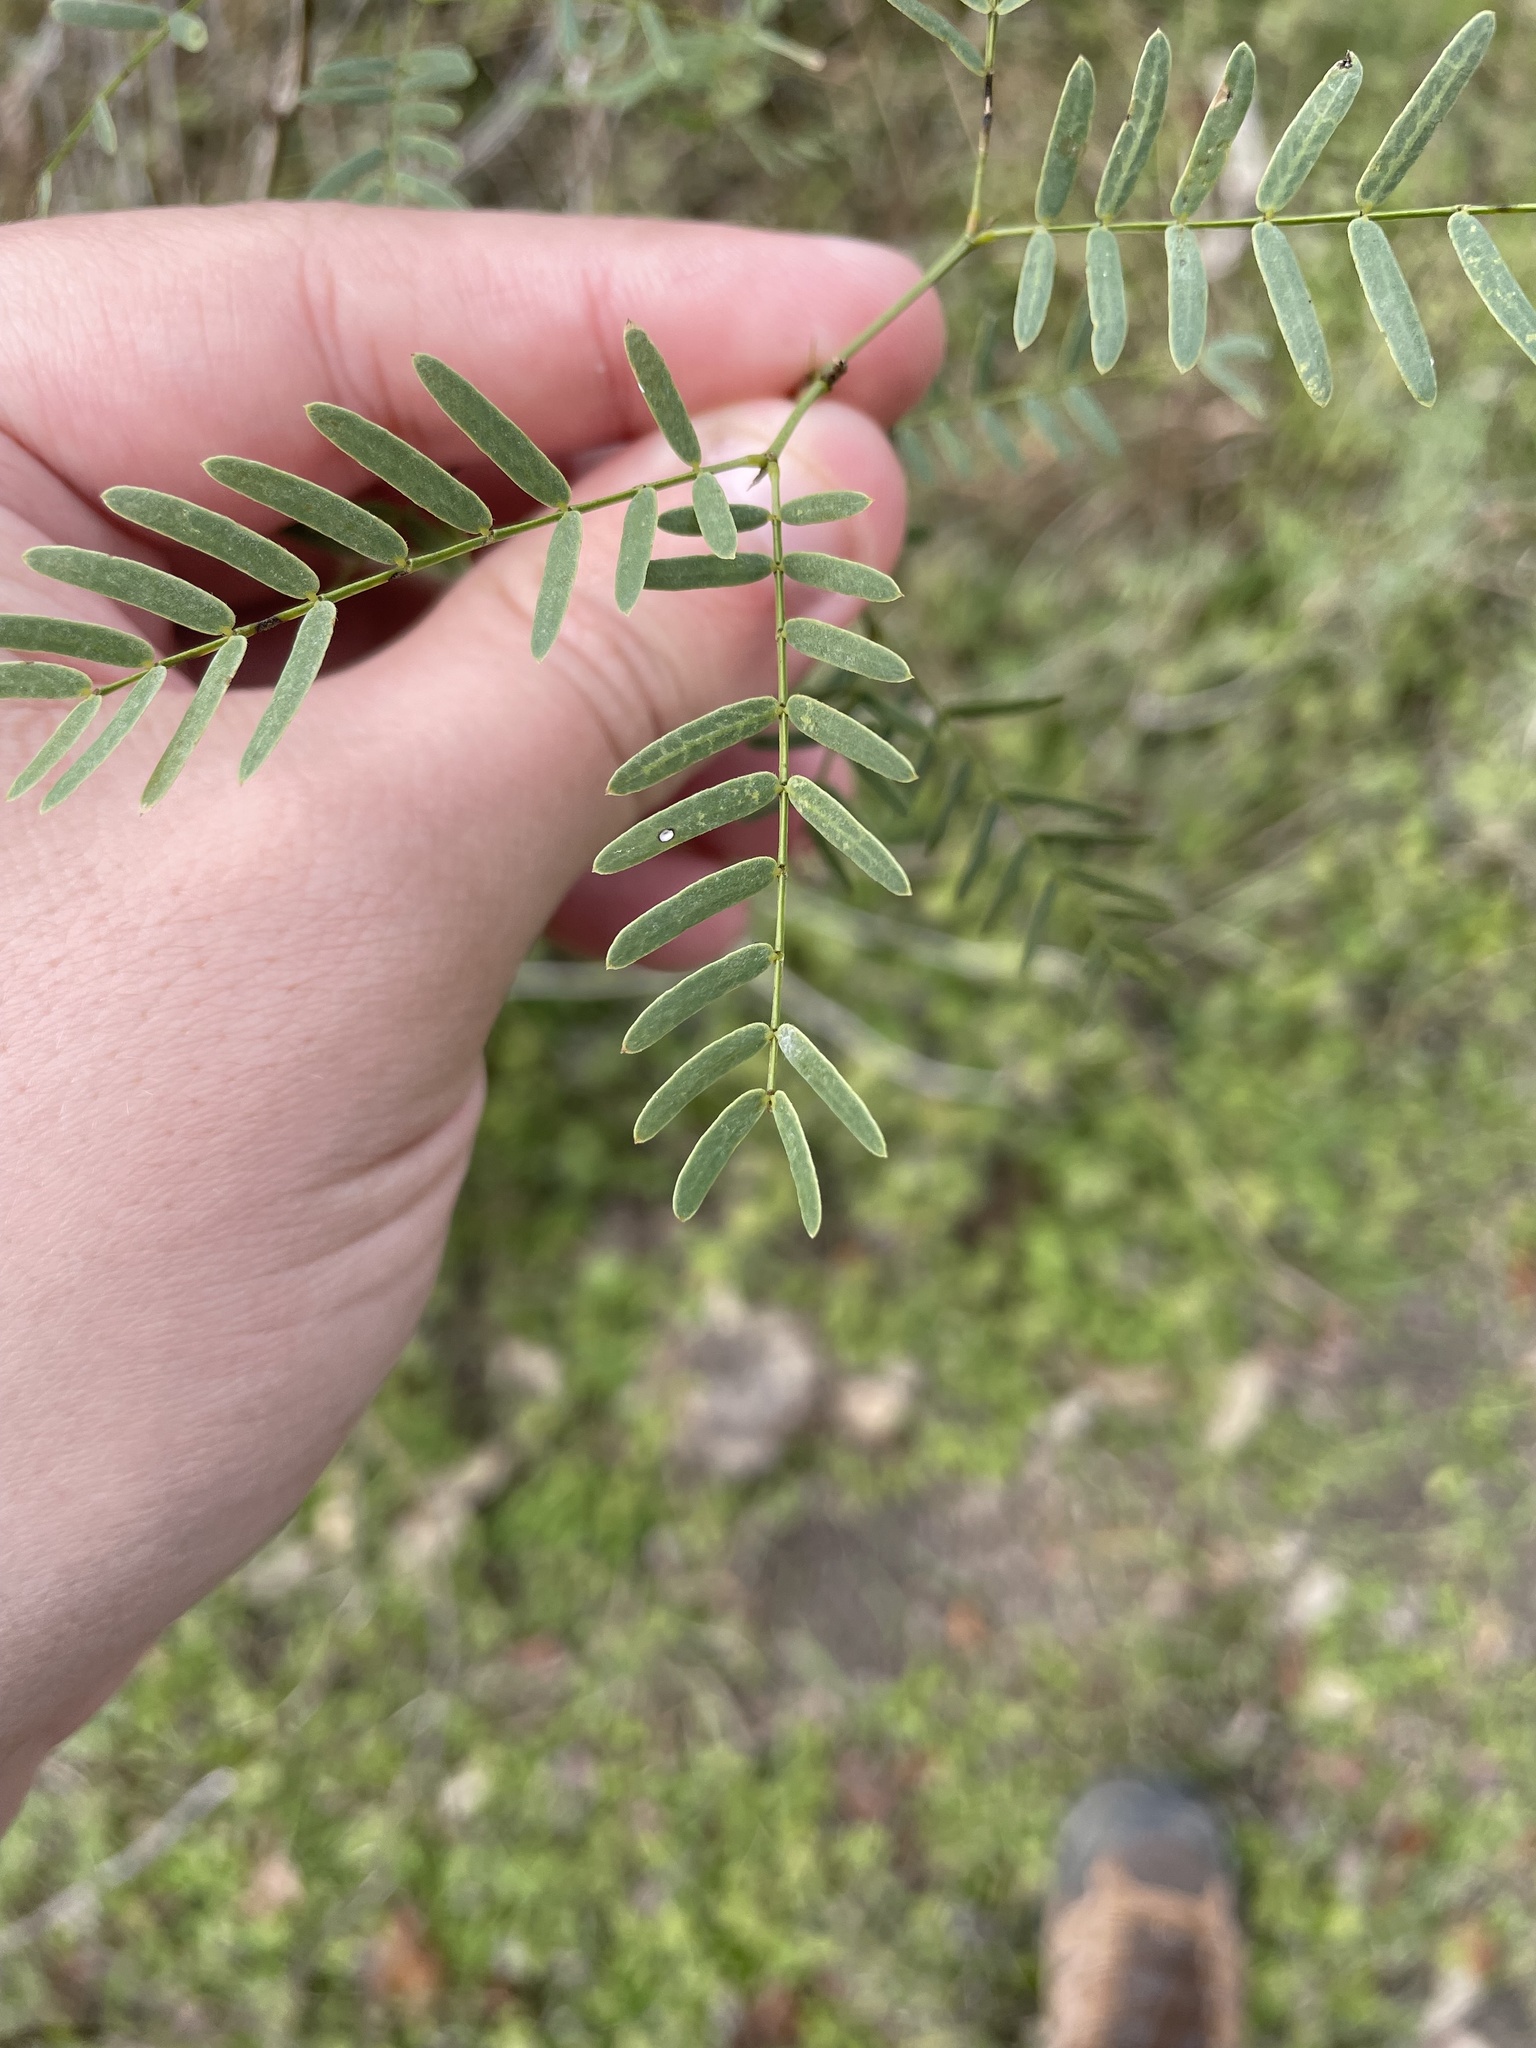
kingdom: Plantae
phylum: Tracheophyta
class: Magnoliopsida
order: Fabales
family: Fabaceae
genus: Prosopis
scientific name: Prosopis glandulosa
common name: Honey mesquite
